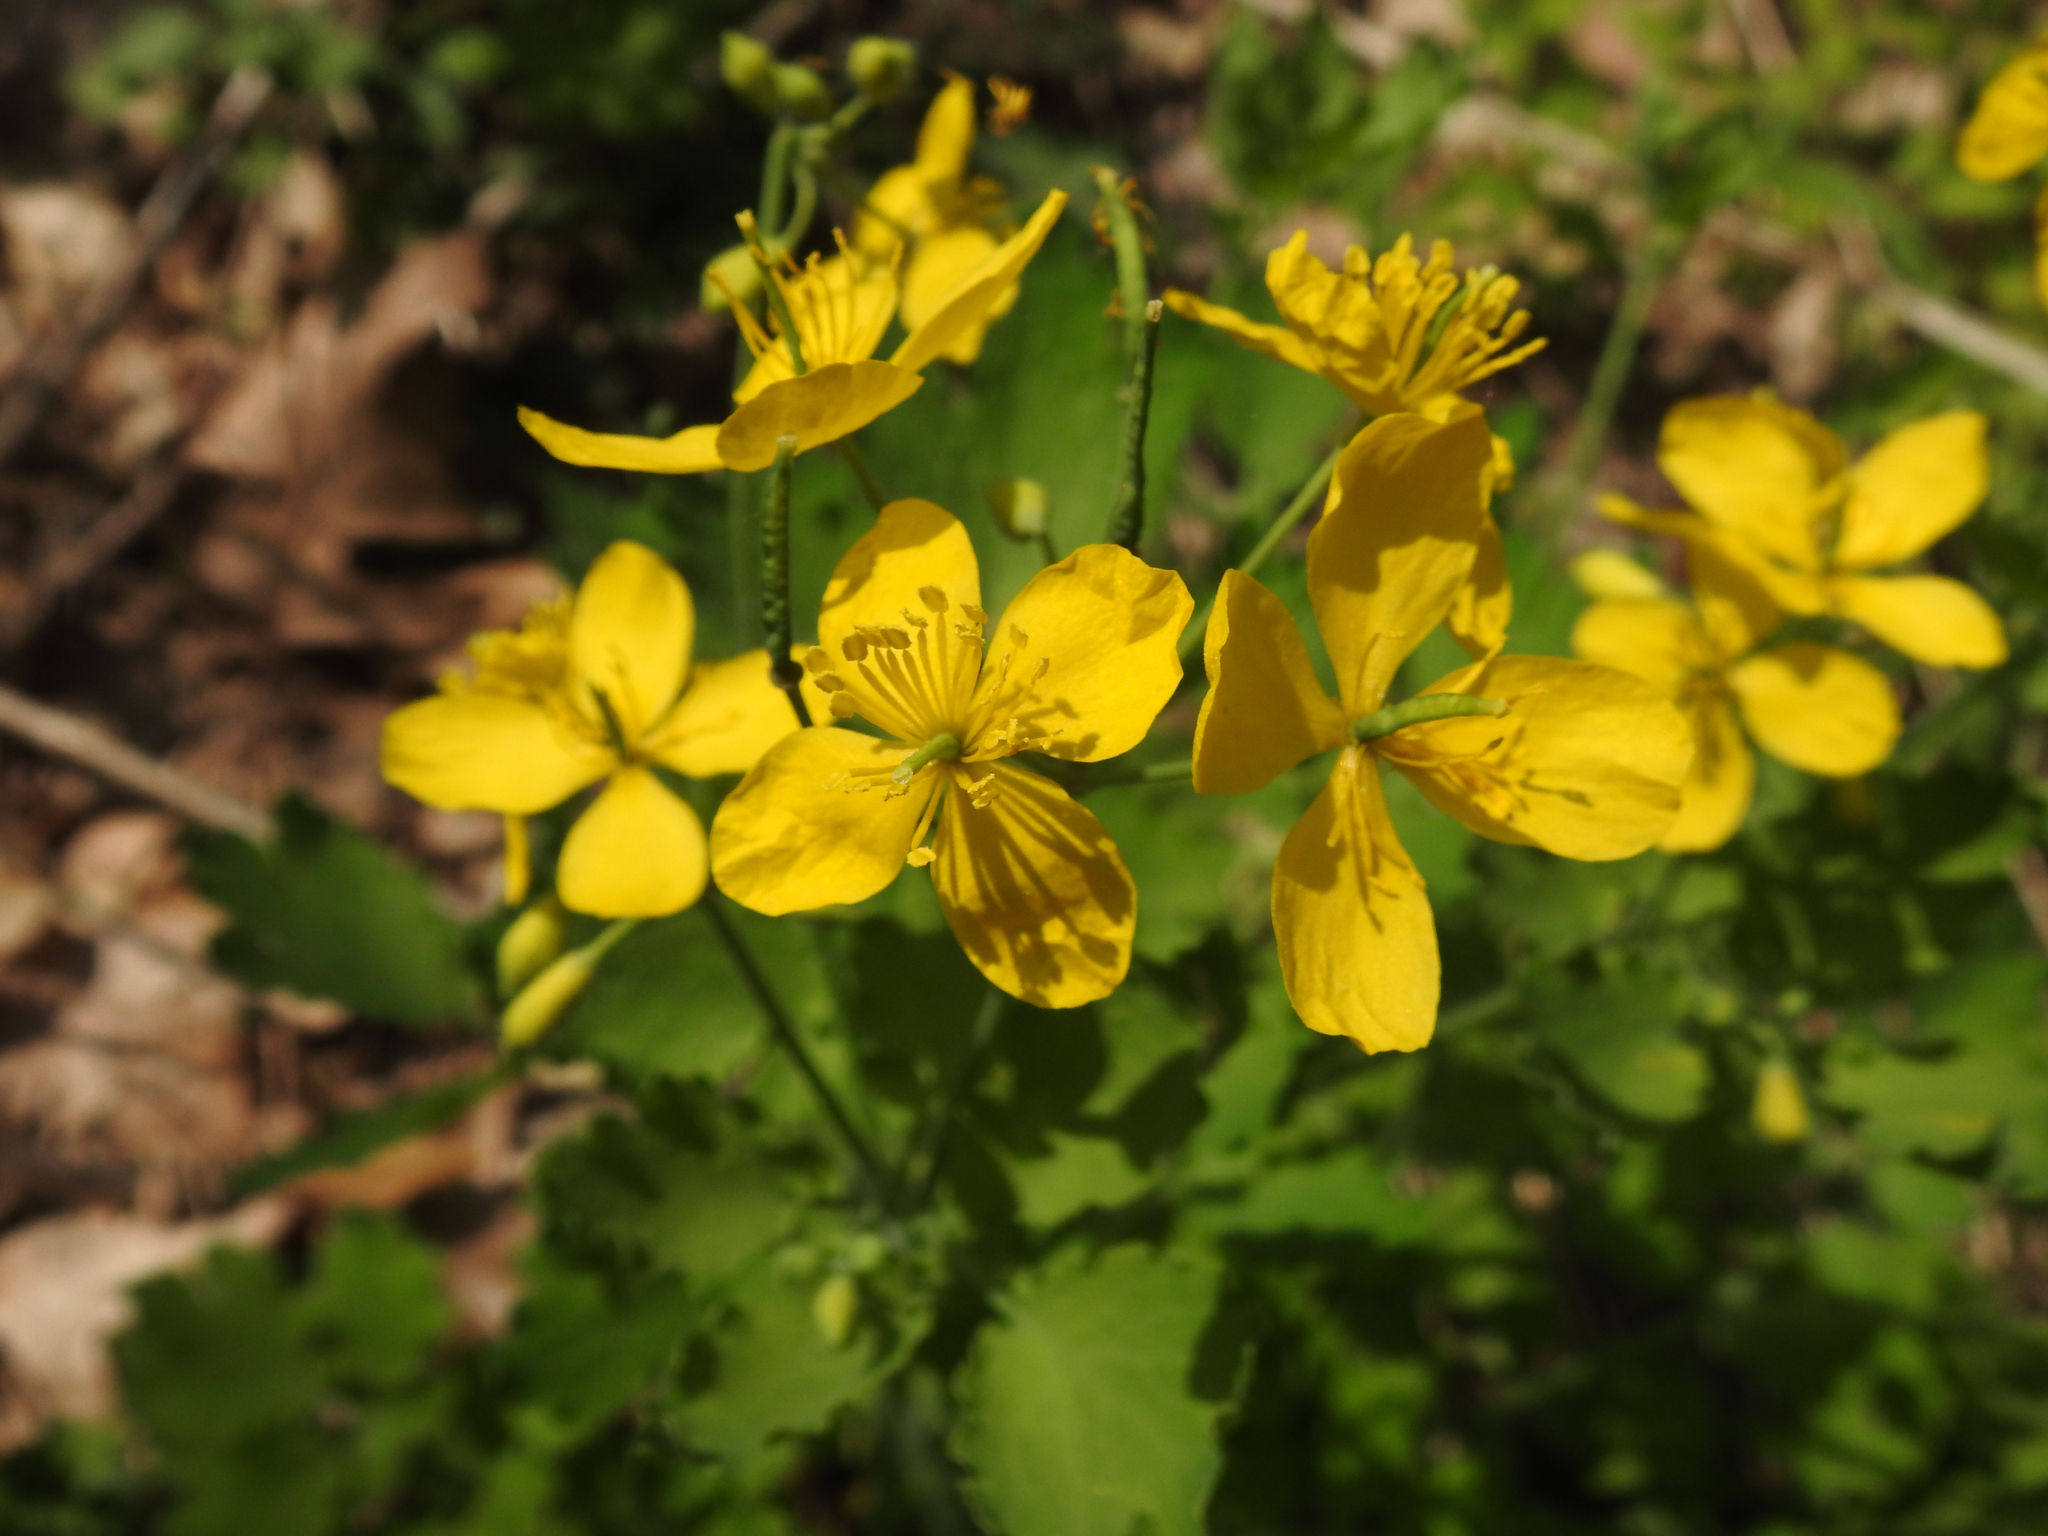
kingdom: Plantae
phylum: Tracheophyta
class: Magnoliopsida
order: Ranunculales
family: Papaveraceae
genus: Chelidonium
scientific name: Chelidonium majus
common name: Greater celandine
